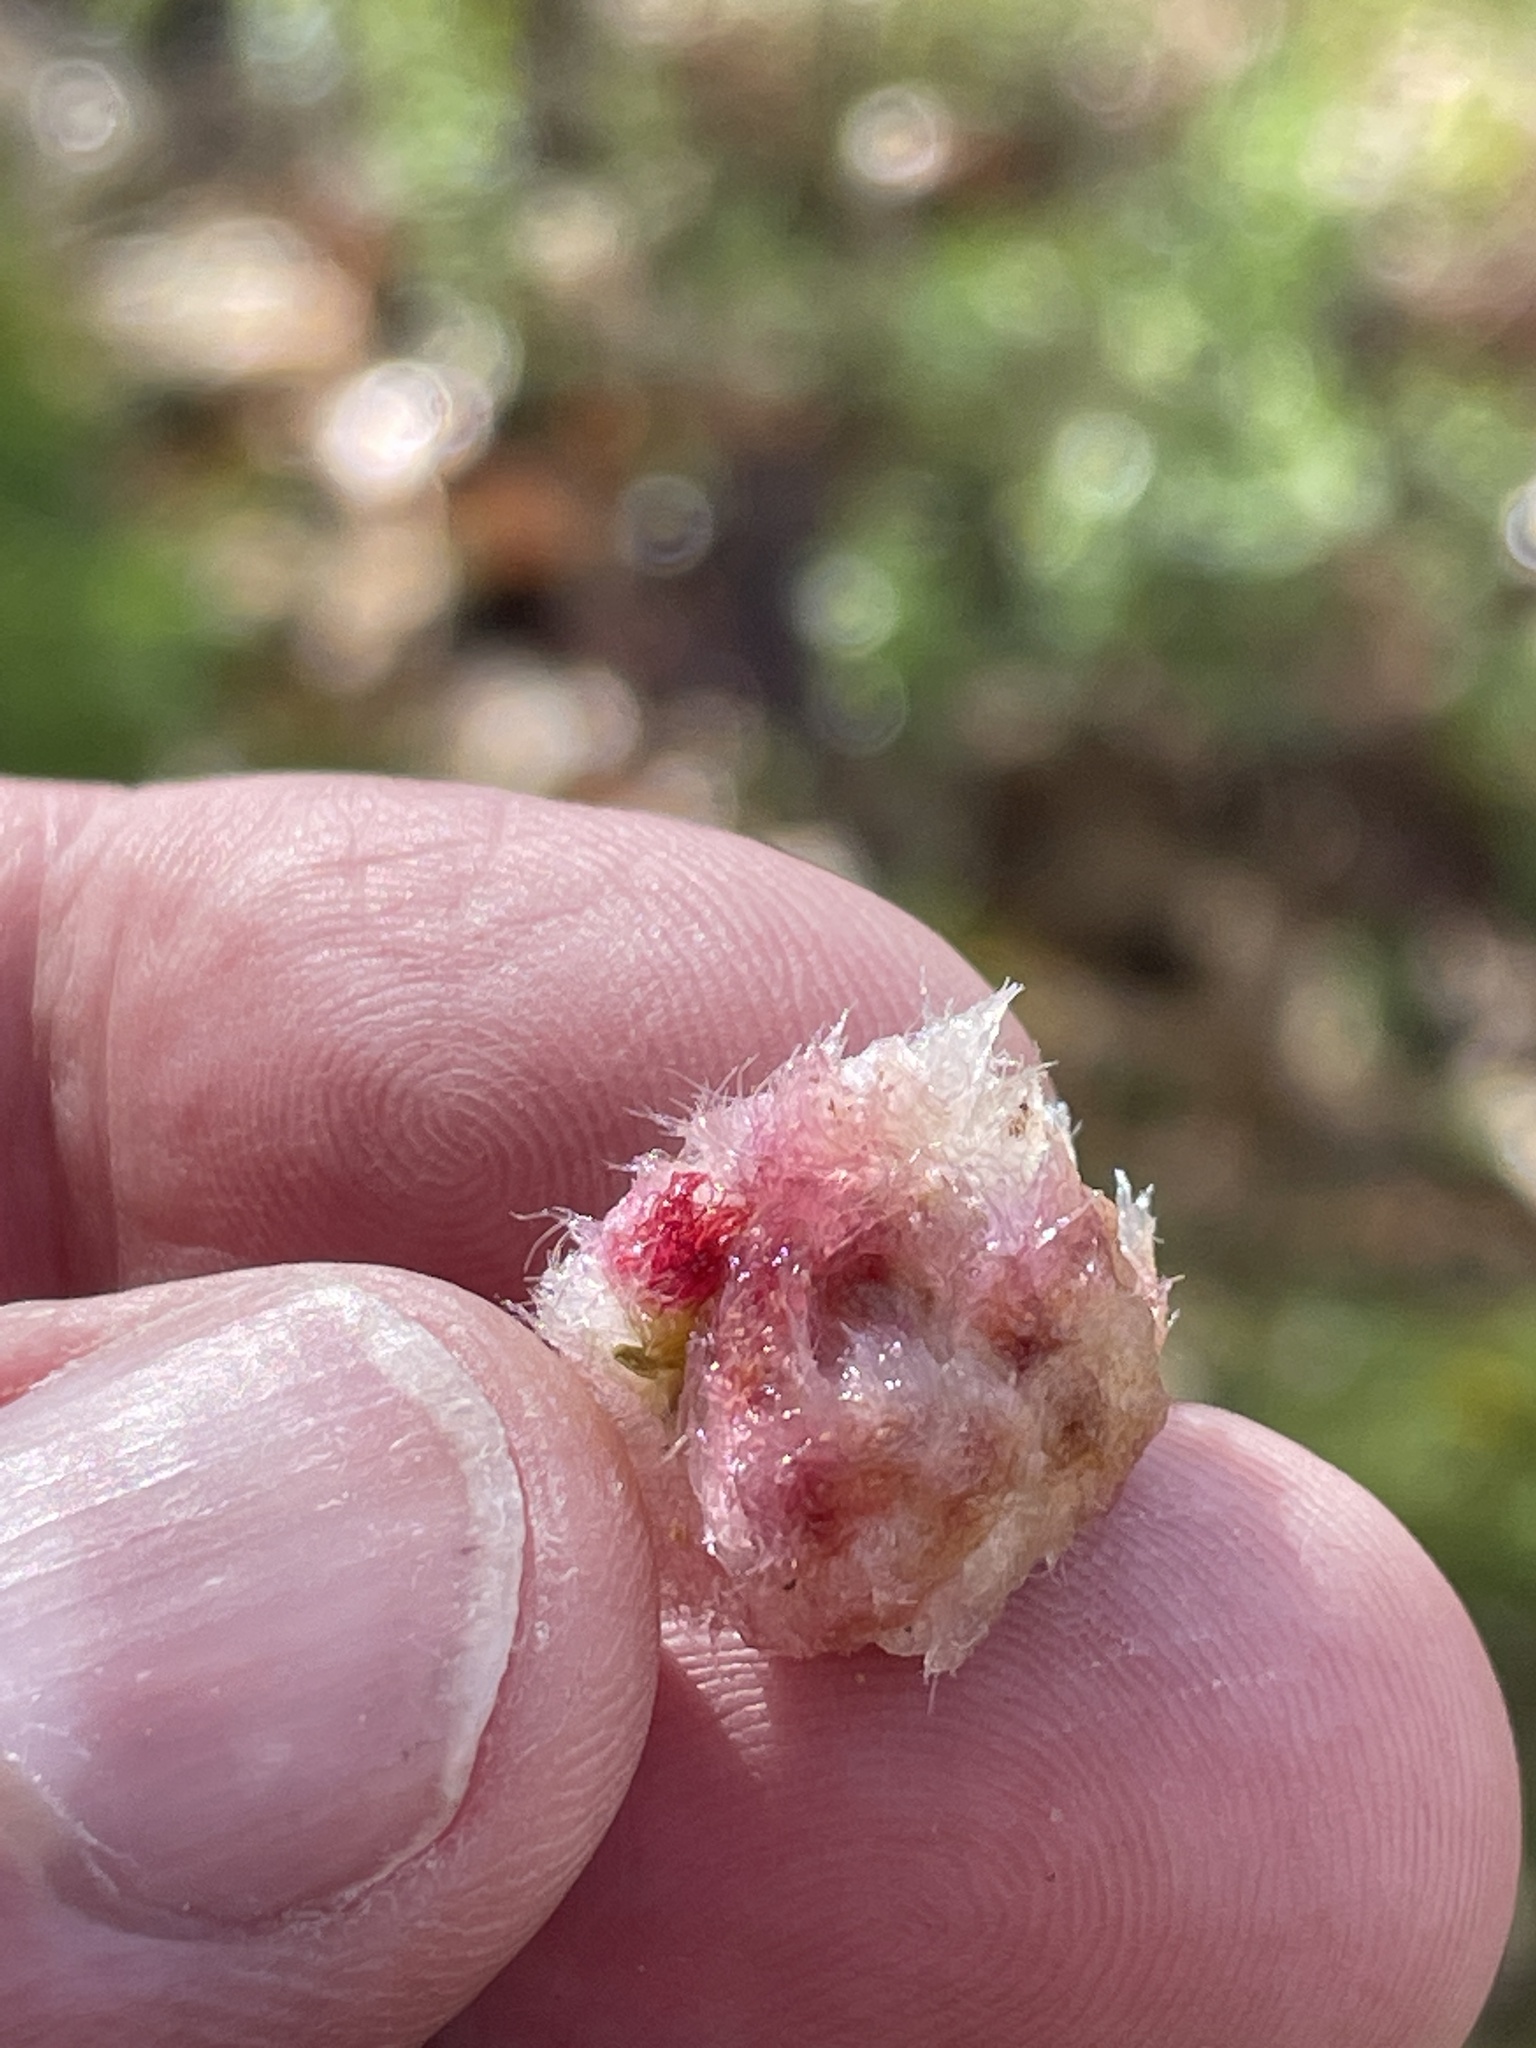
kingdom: Animalia
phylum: Arthropoda
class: Insecta
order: Hymenoptera
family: Cynipidae
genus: Callirhytis
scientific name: Callirhytis
